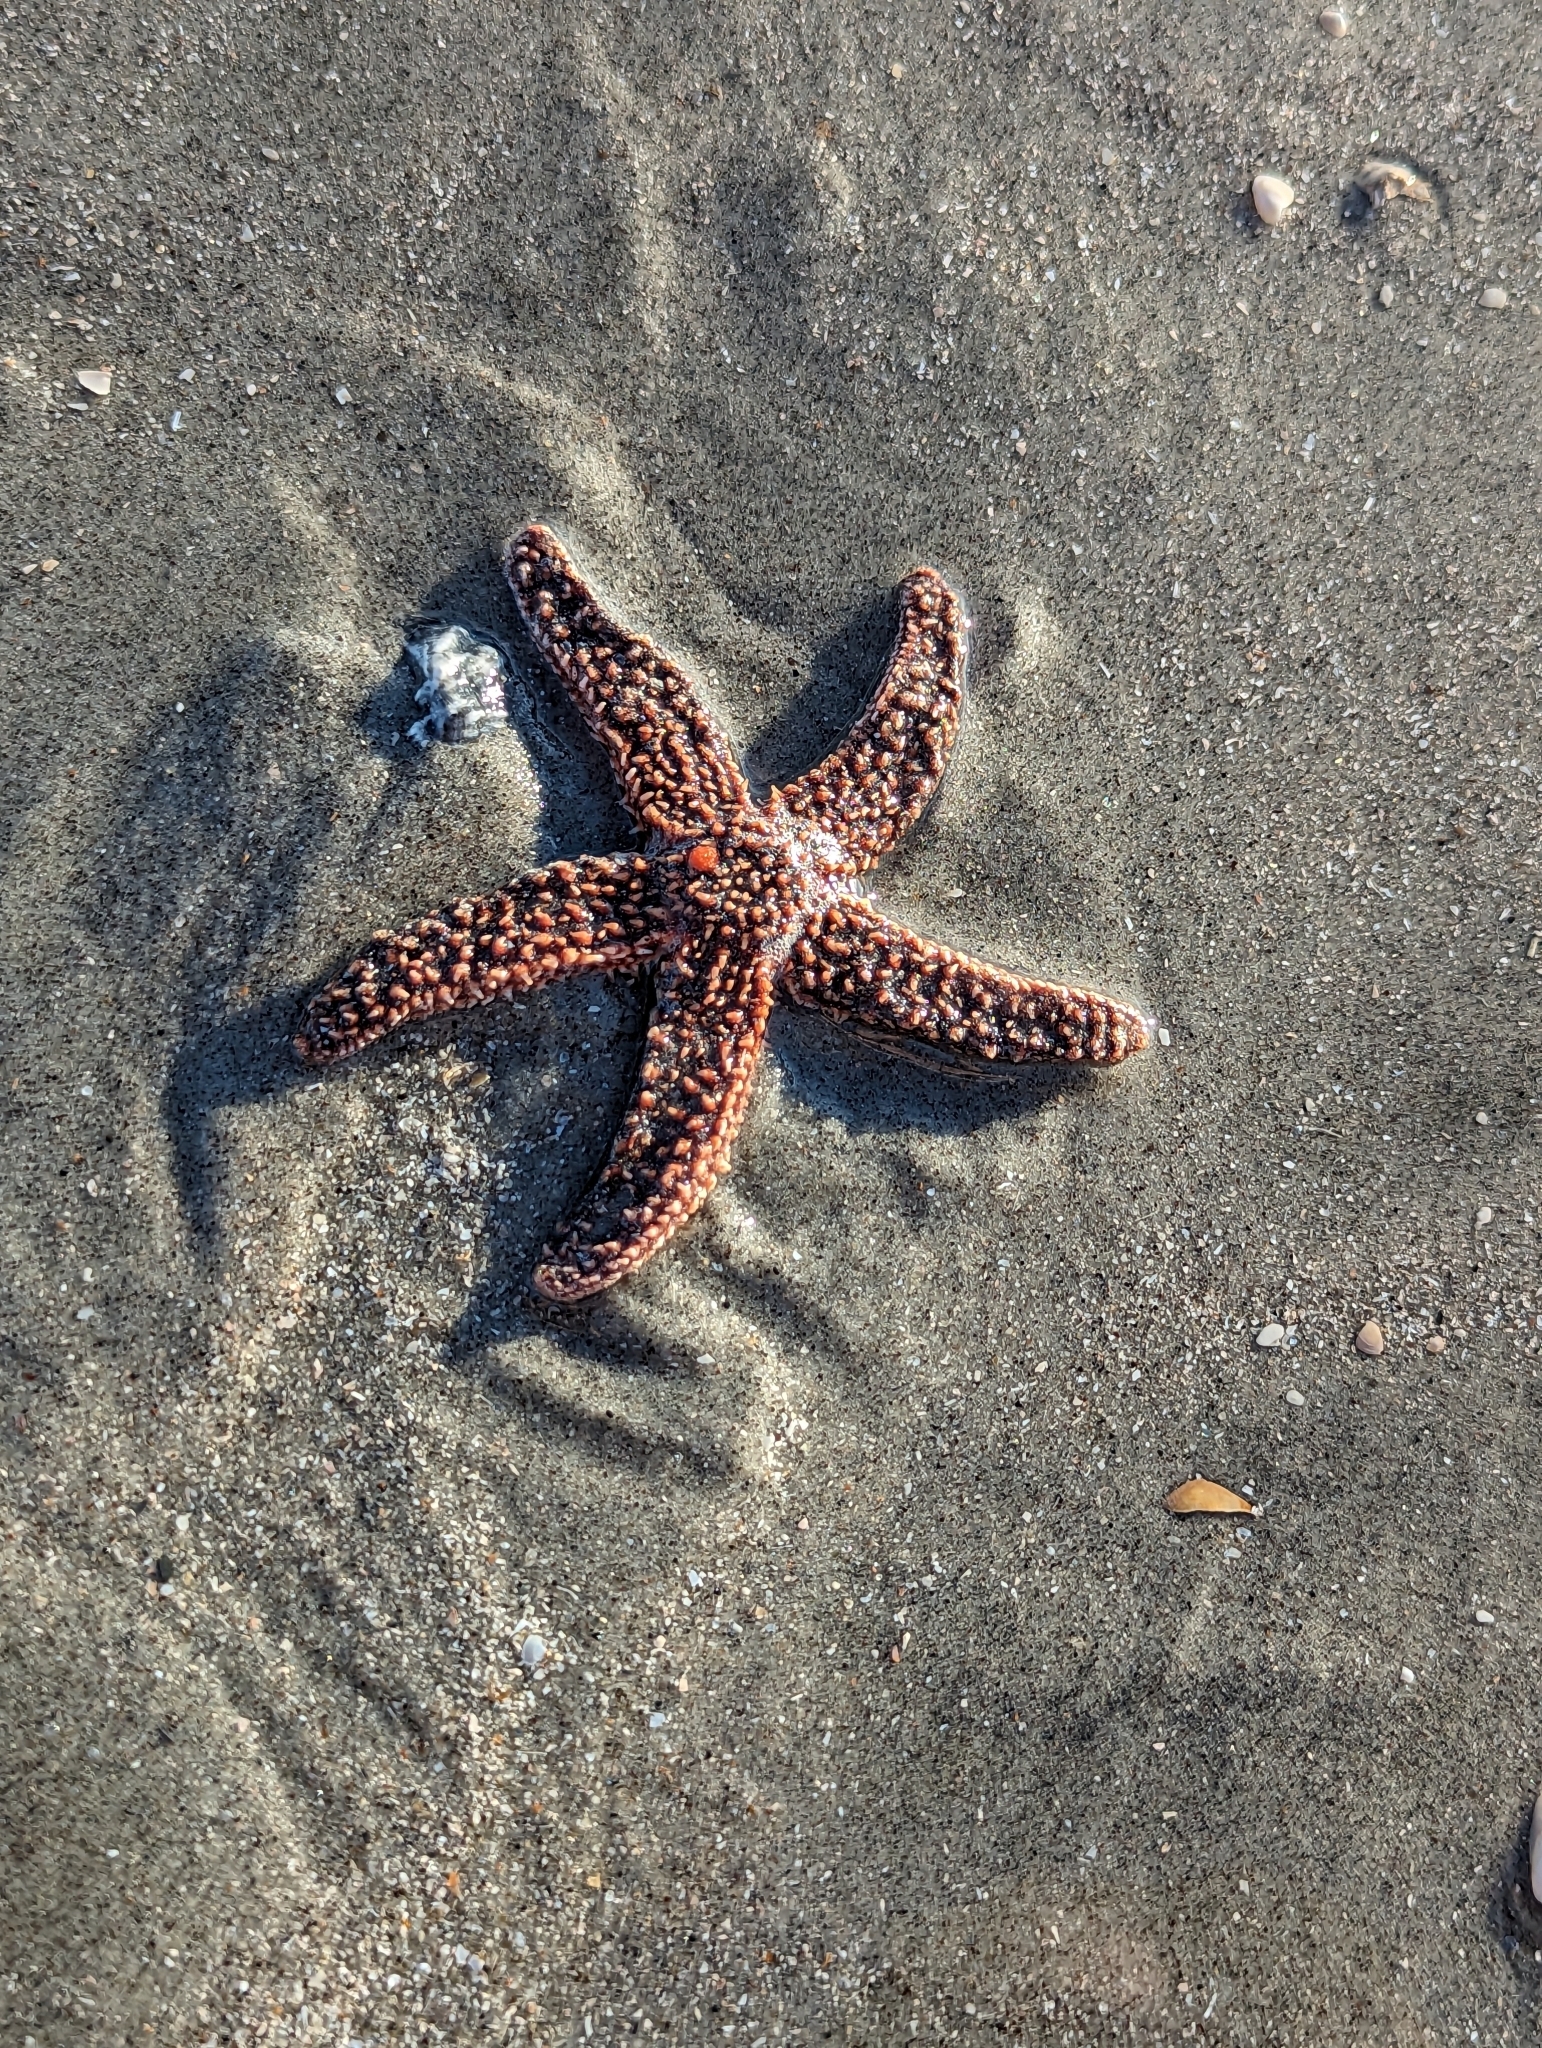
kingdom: Animalia
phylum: Echinodermata
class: Asteroidea
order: Forcipulatida
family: Asteriidae
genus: Asterias
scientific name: Asterias forbesi
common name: Forbes's sea star
